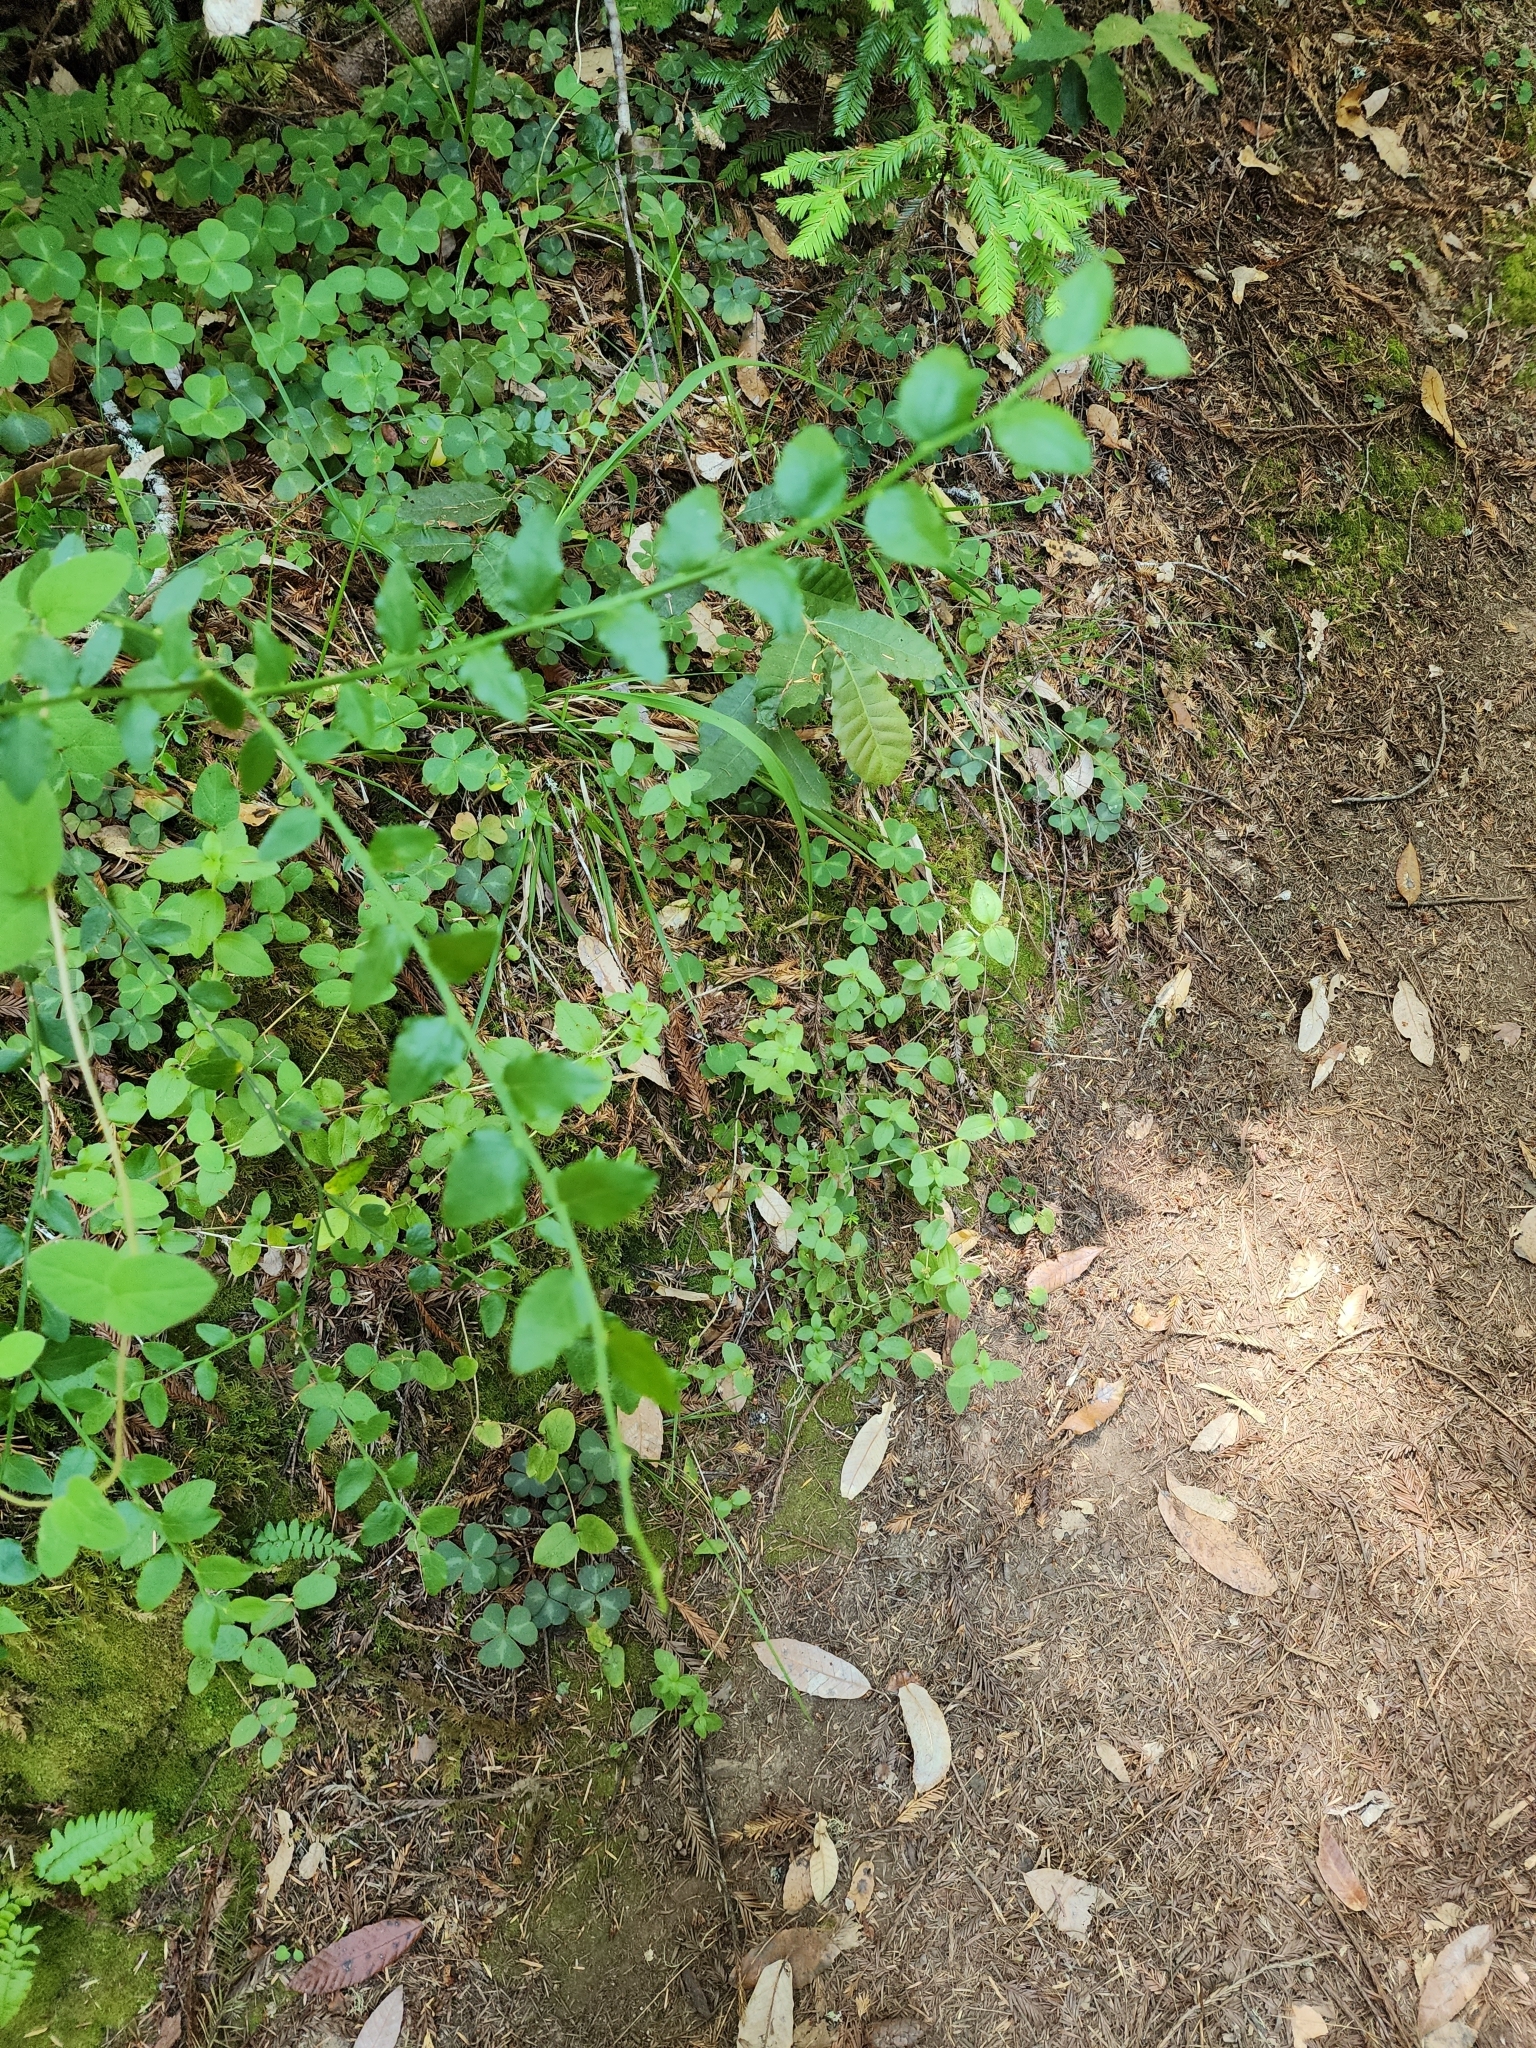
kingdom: Plantae
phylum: Tracheophyta
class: Magnoliopsida
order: Ericales
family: Ericaceae
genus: Vaccinium
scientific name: Vaccinium parvifolium
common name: Red-huckleberry
